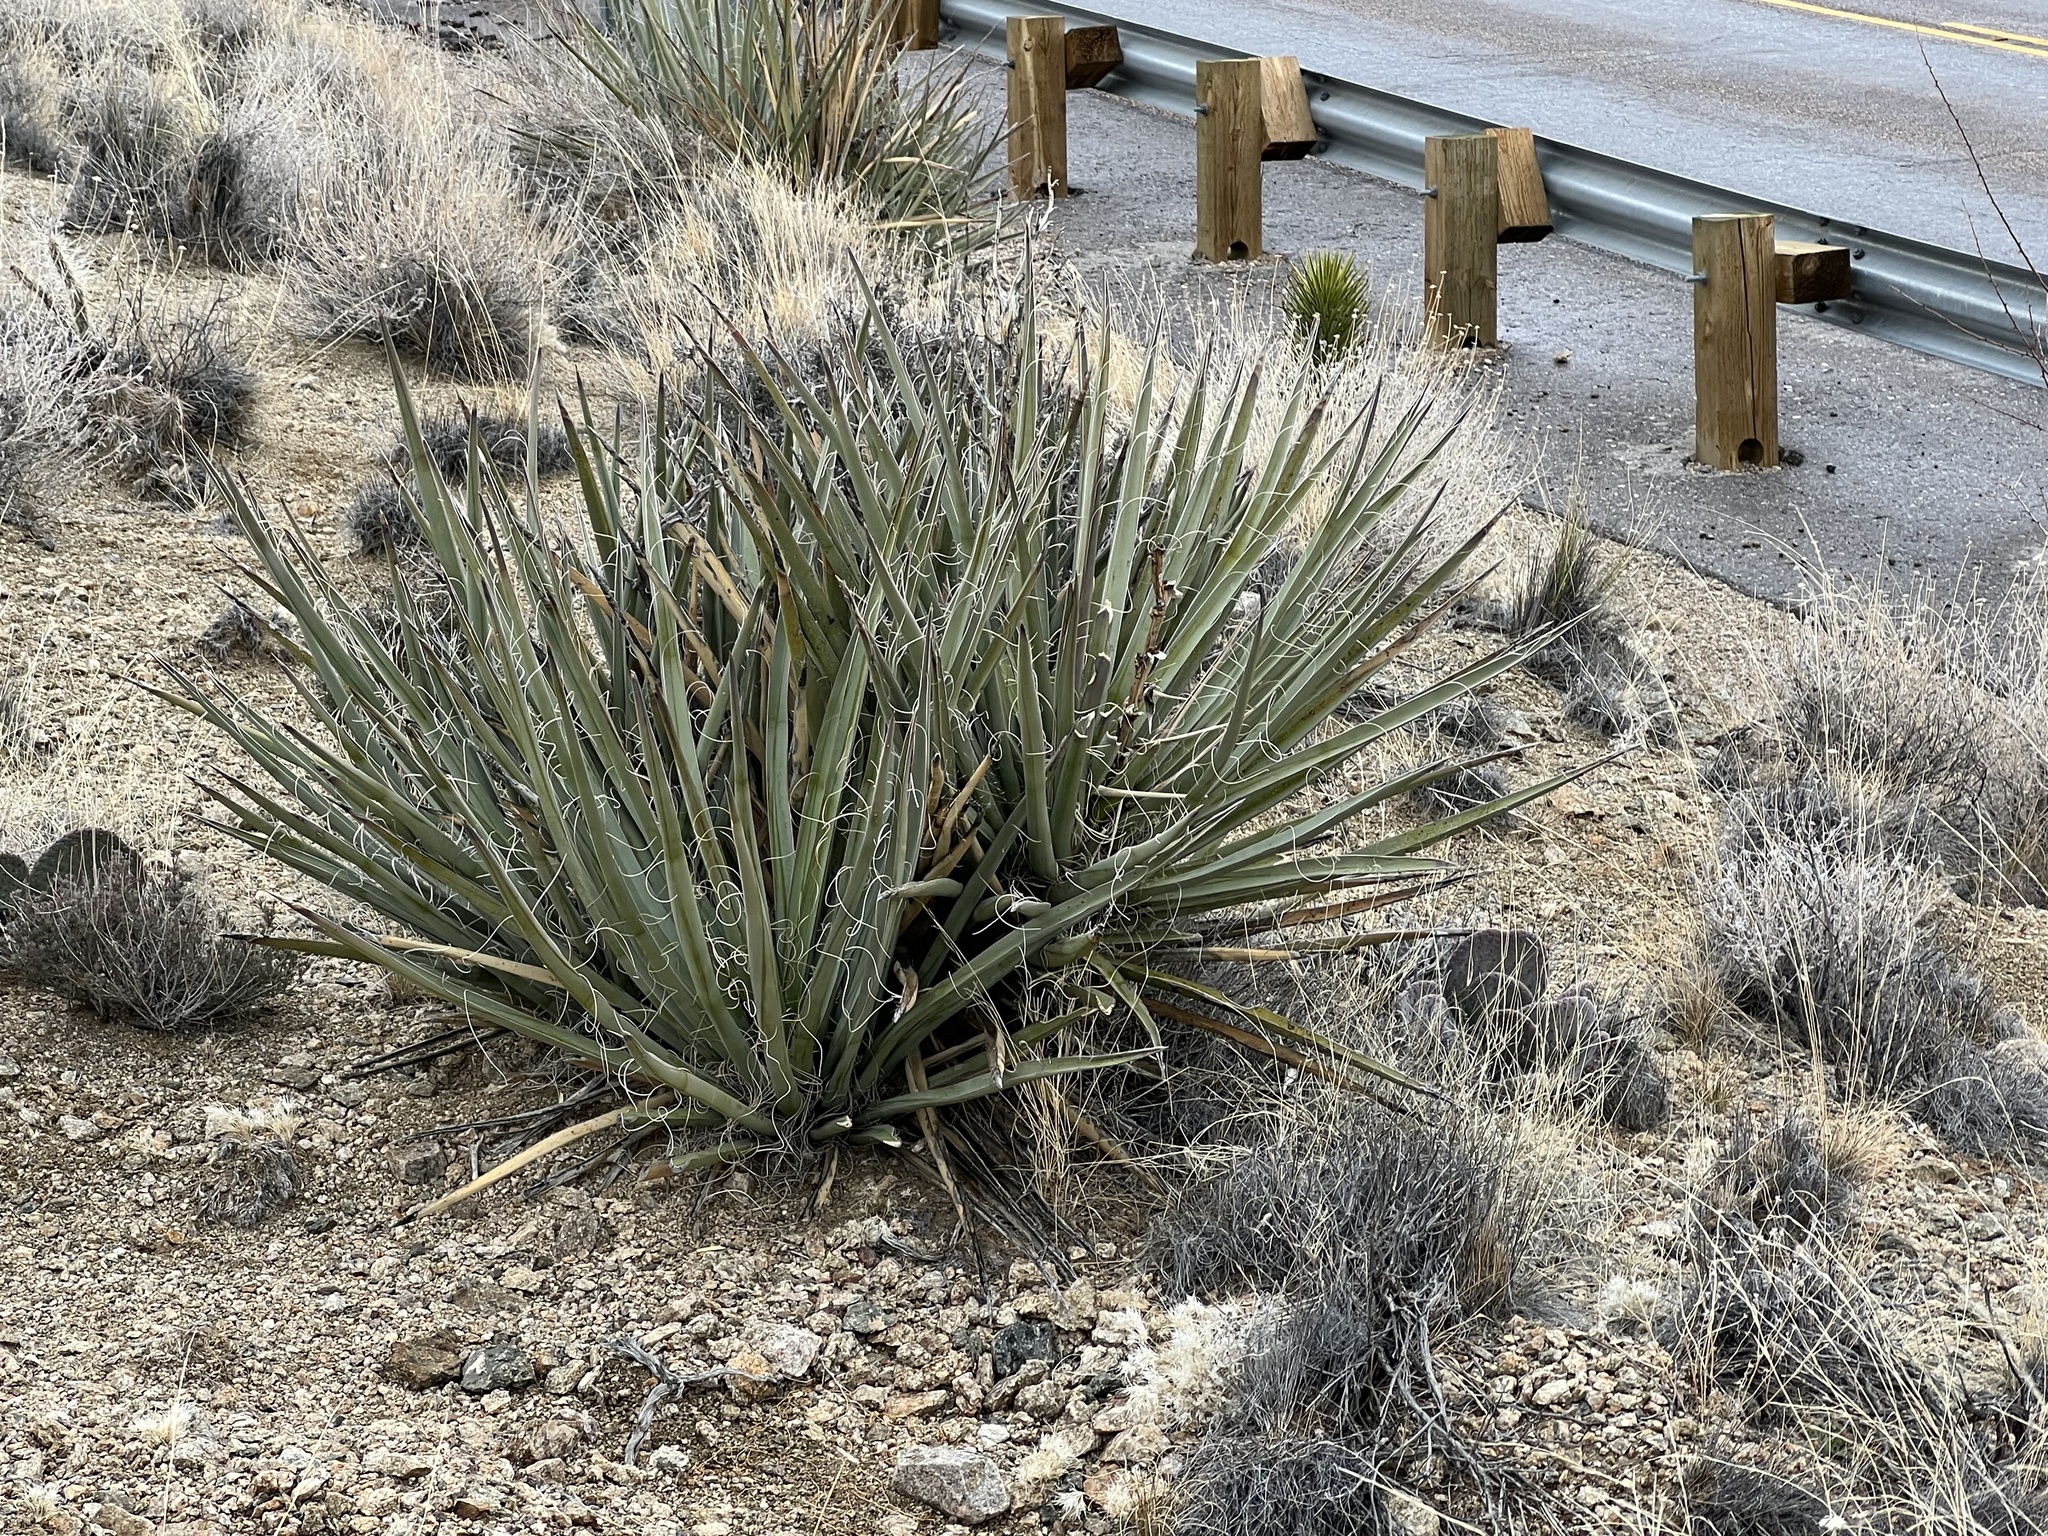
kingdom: Plantae
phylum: Tracheophyta
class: Liliopsida
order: Asparagales
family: Asparagaceae
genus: Yucca
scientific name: Yucca baccata
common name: Banana yucca
